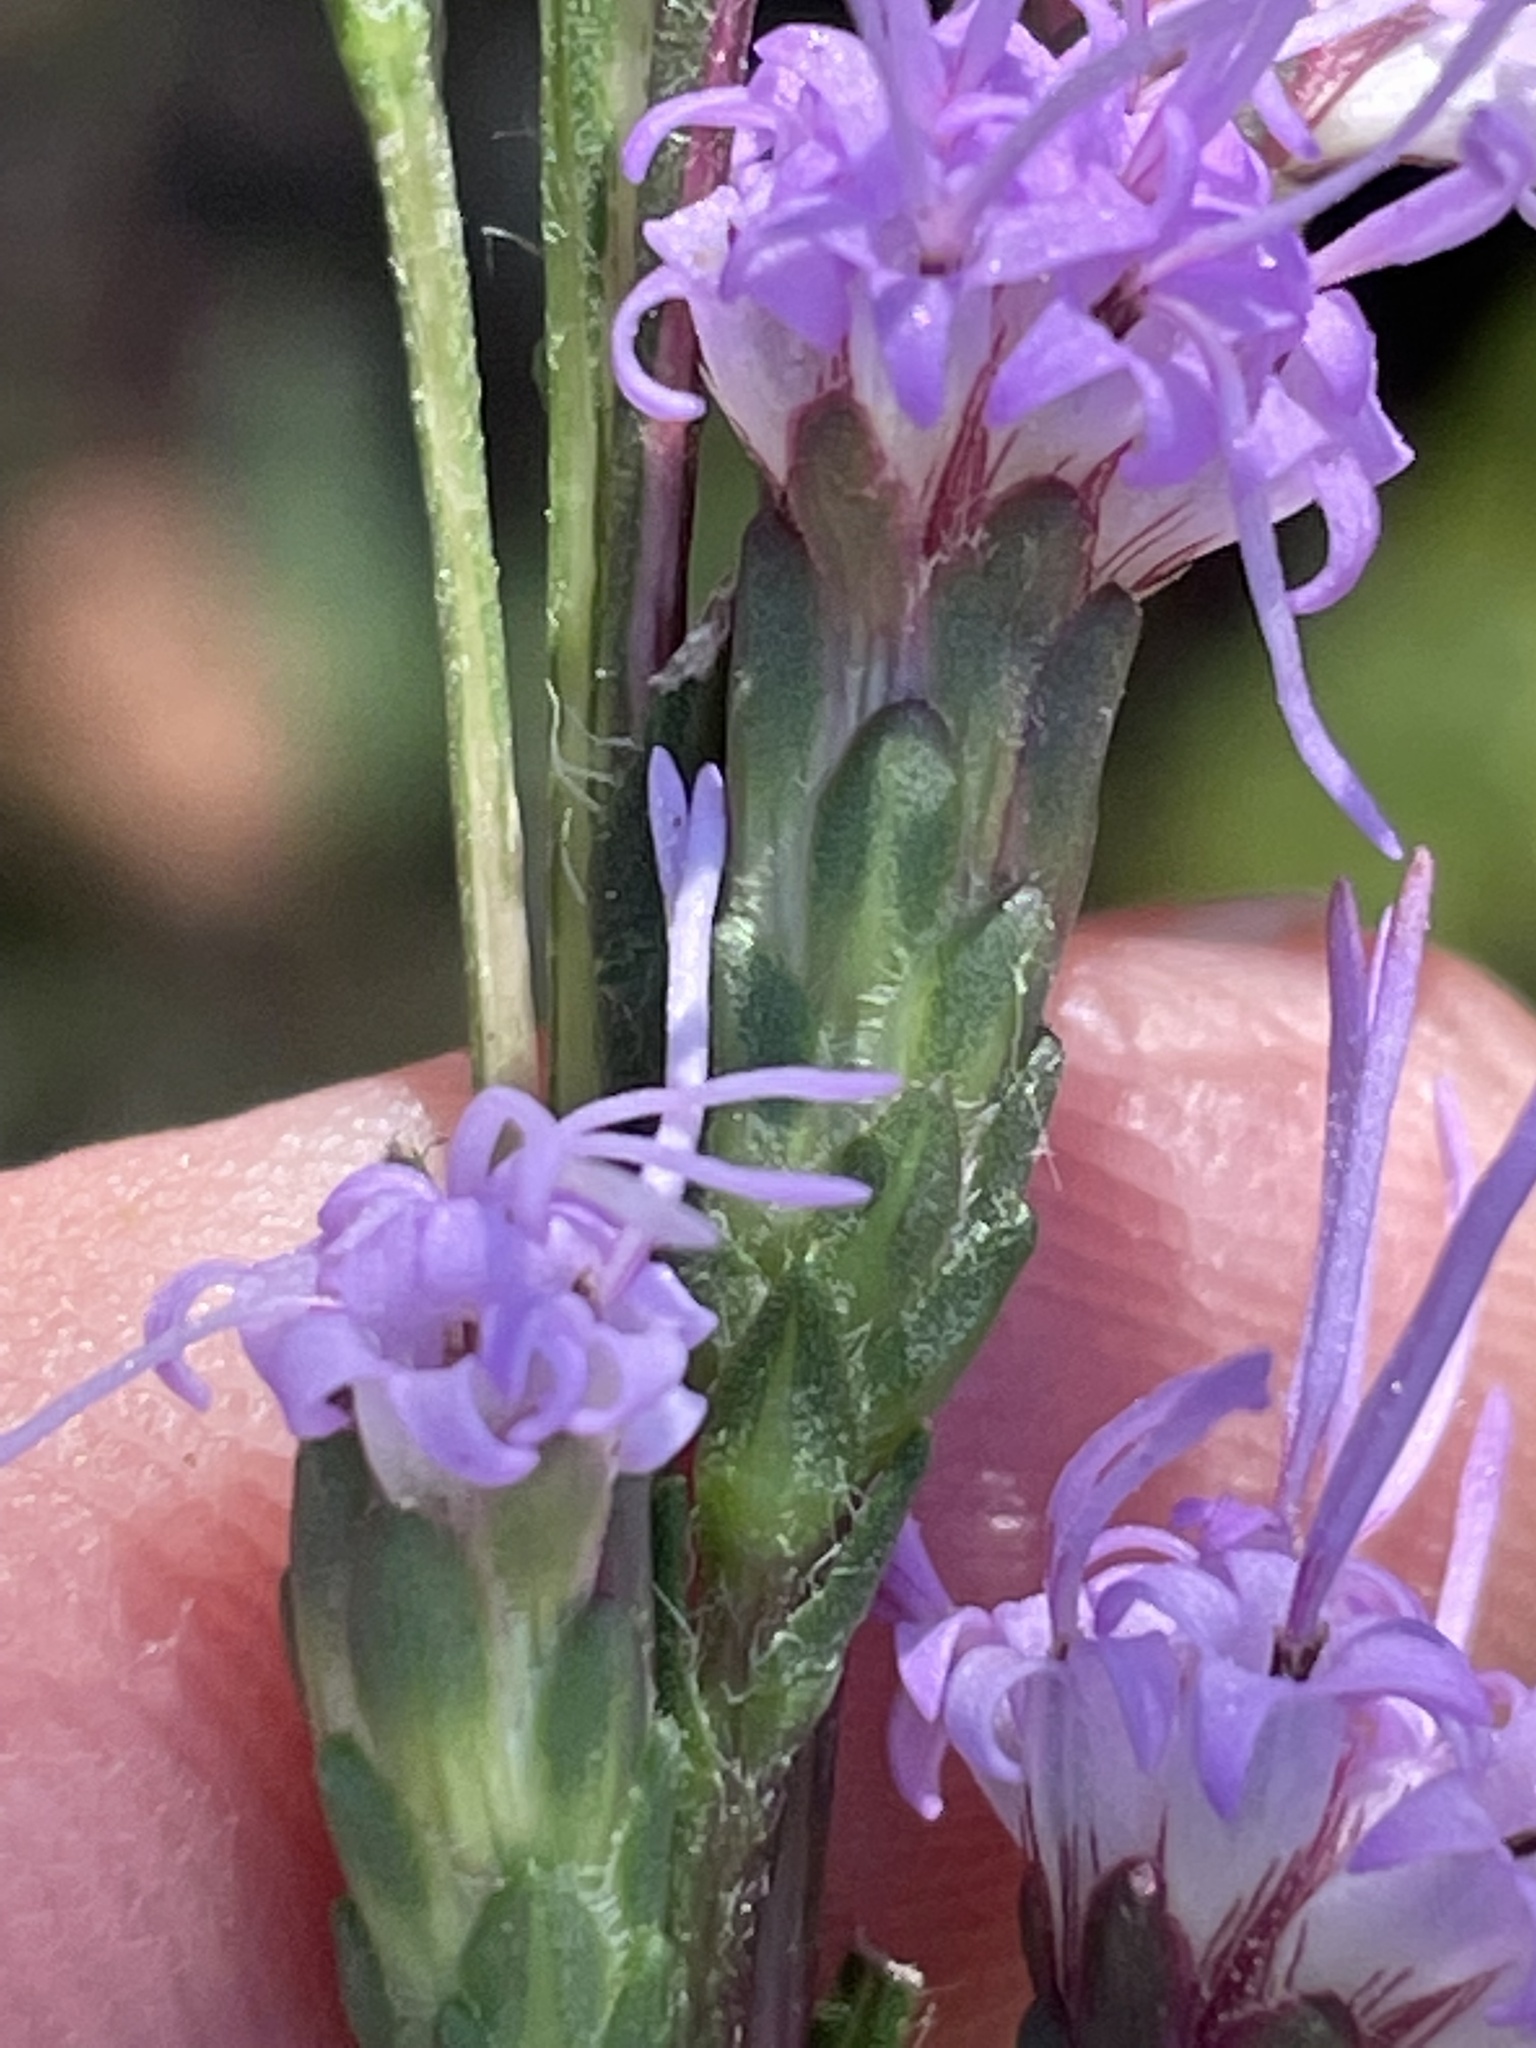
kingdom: Plantae
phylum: Tracheophyta
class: Magnoliopsida
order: Asterales
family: Asteraceae
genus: Liatris
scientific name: Liatris pilosa
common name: Grass-leaf gayfeather
